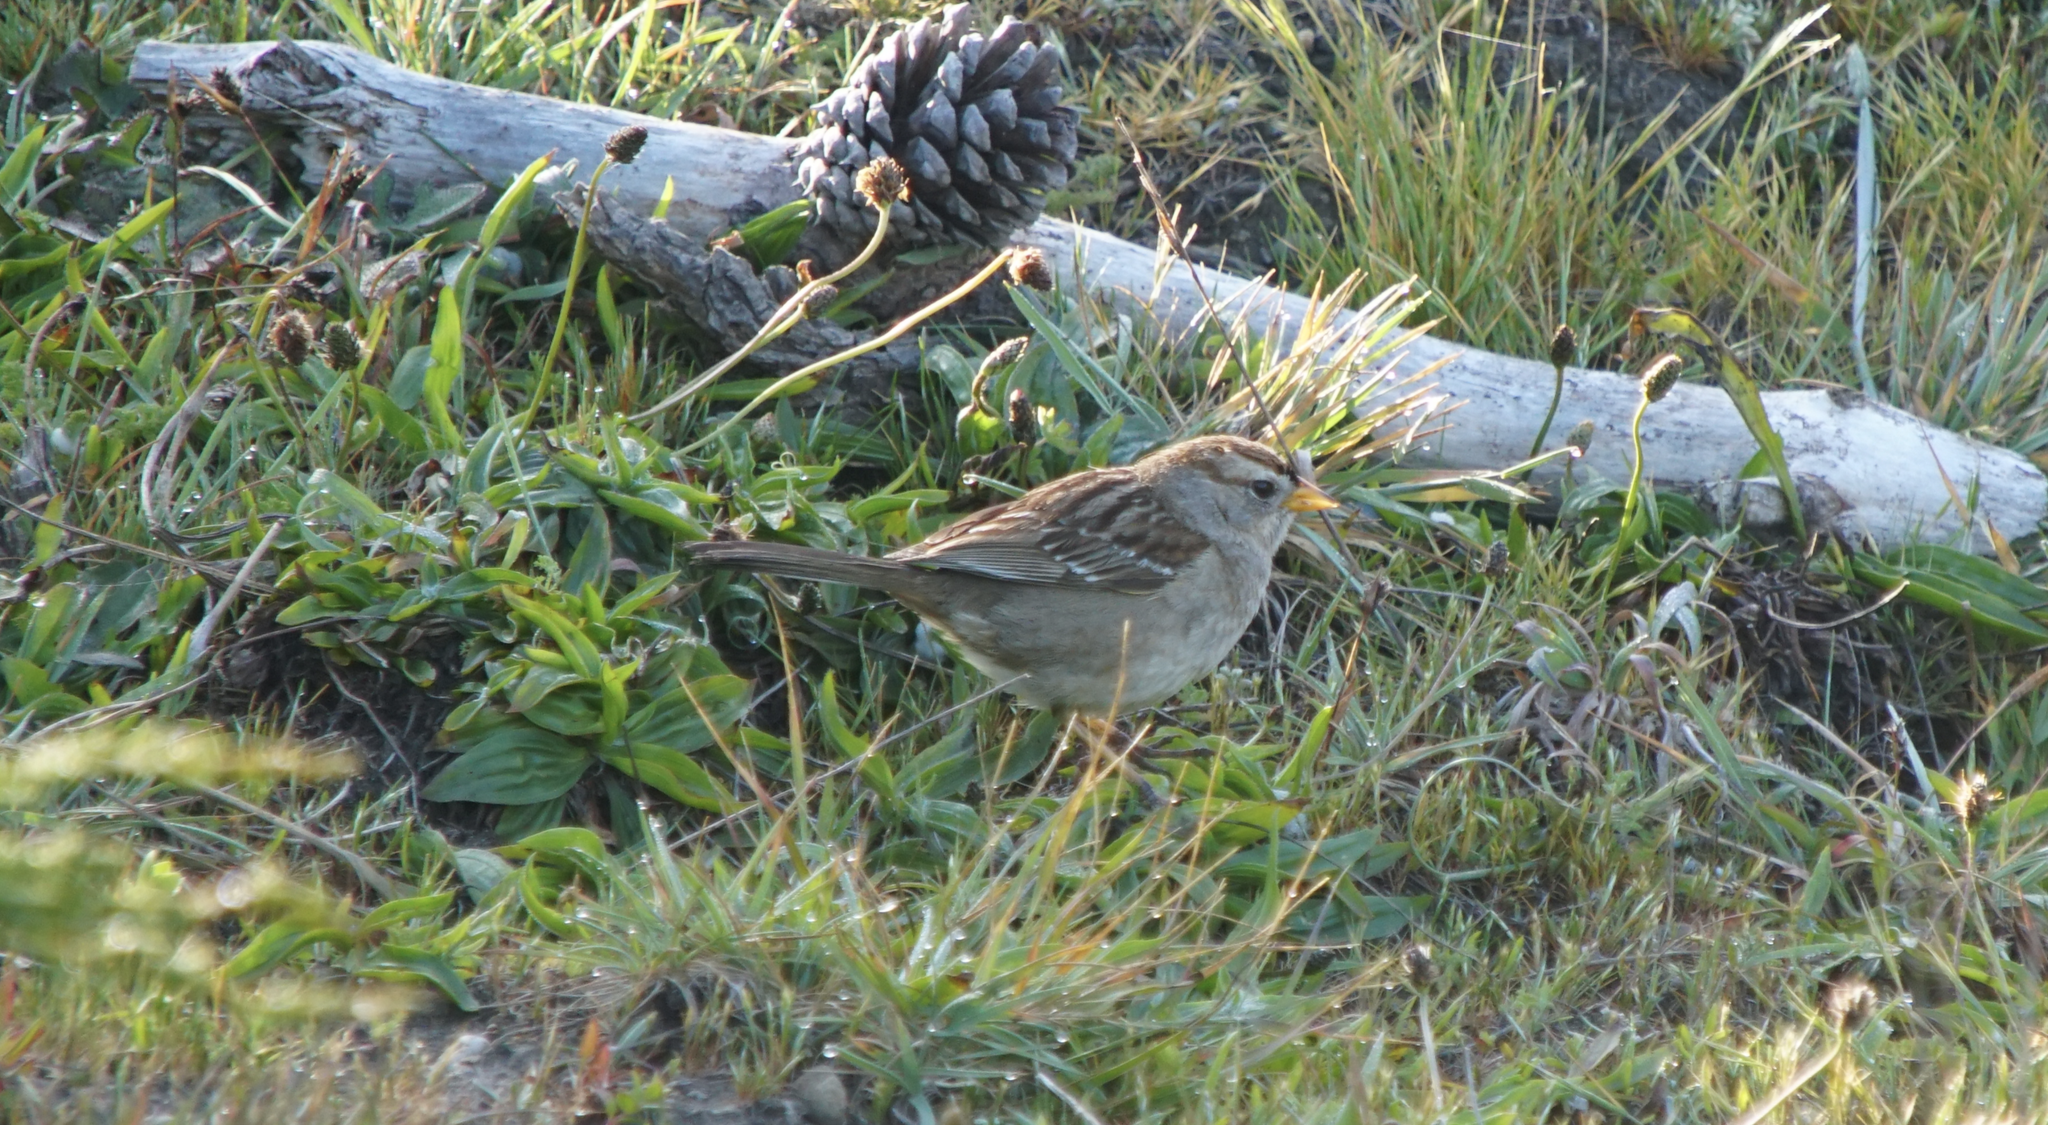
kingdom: Animalia
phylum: Chordata
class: Aves
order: Passeriformes
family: Passerellidae
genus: Zonotrichia
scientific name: Zonotrichia leucophrys
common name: White-crowned sparrow
